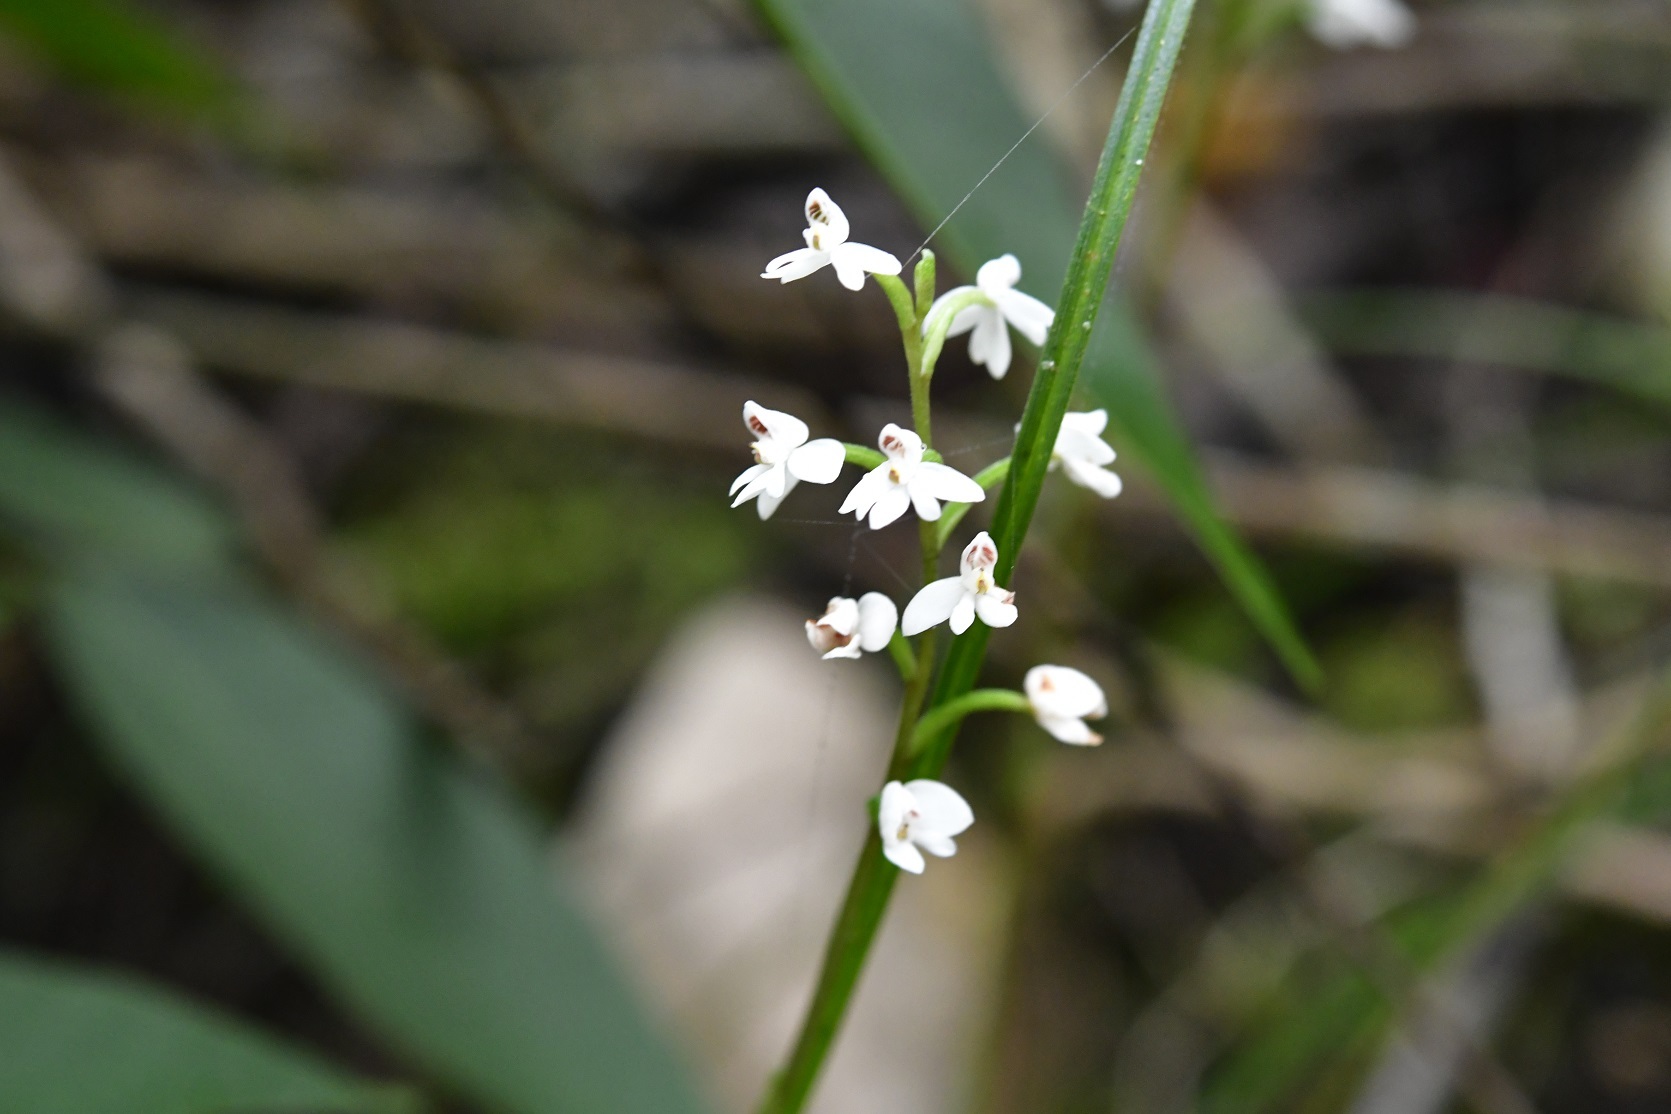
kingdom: Plantae
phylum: Tracheophyta
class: Liliopsida
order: Asparagales
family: Orchidaceae
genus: Cranichis
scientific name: Cranichis cochleata
